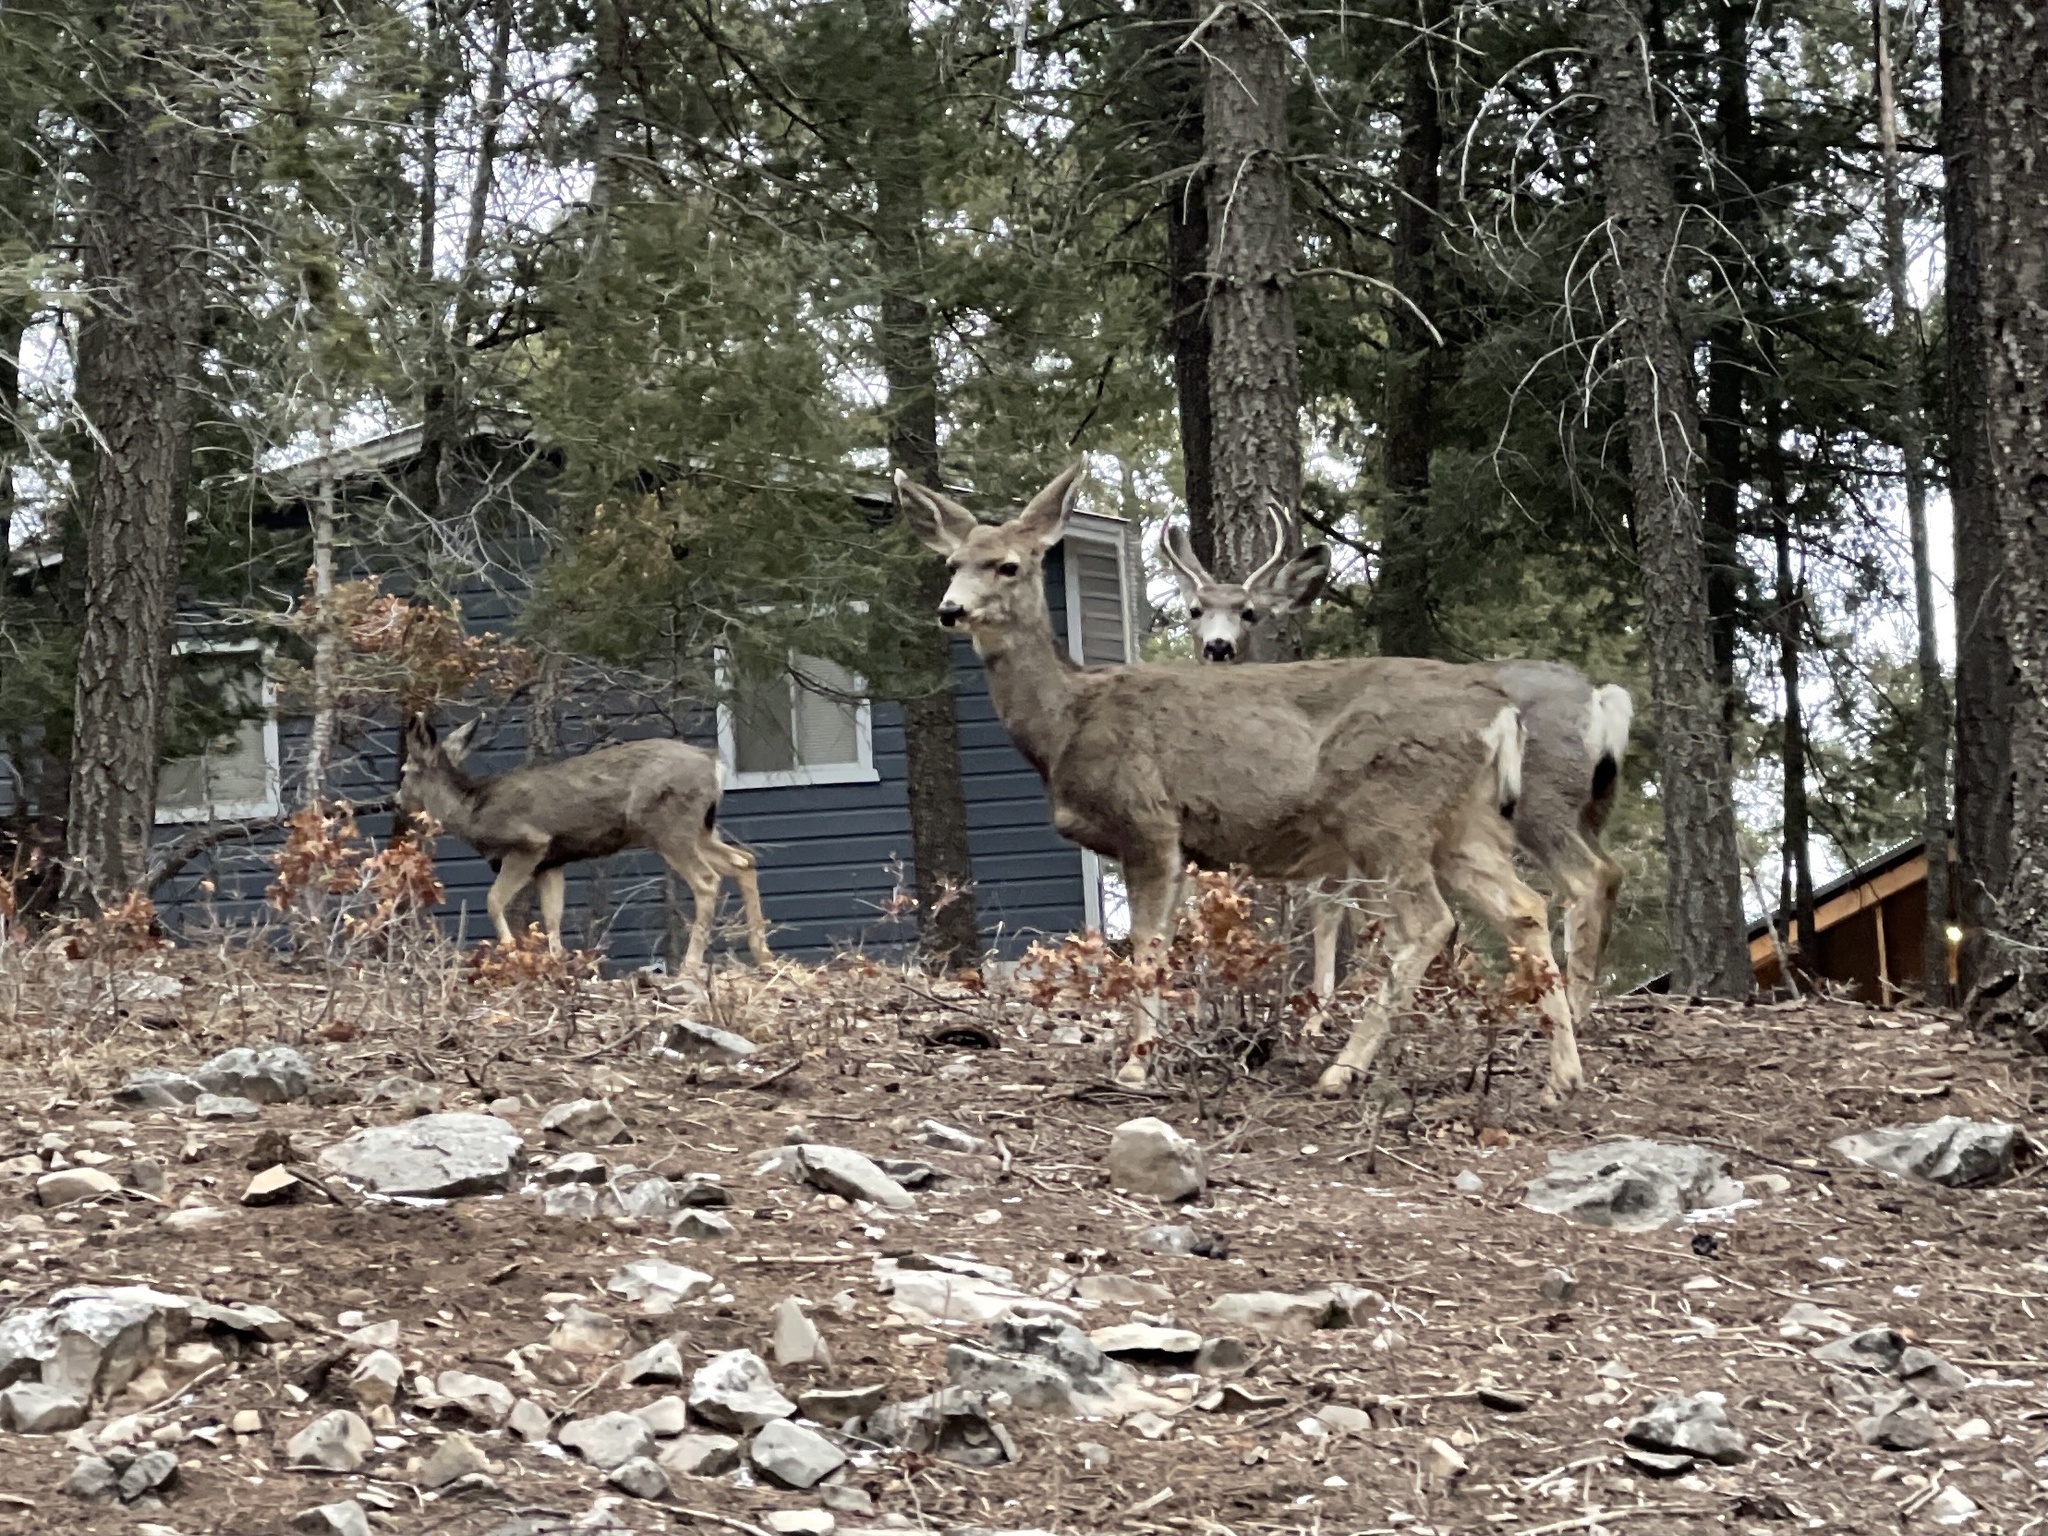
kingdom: Animalia
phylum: Chordata
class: Mammalia
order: Artiodactyla
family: Cervidae
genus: Odocoileus
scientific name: Odocoileus hemionus
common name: Mule deer
